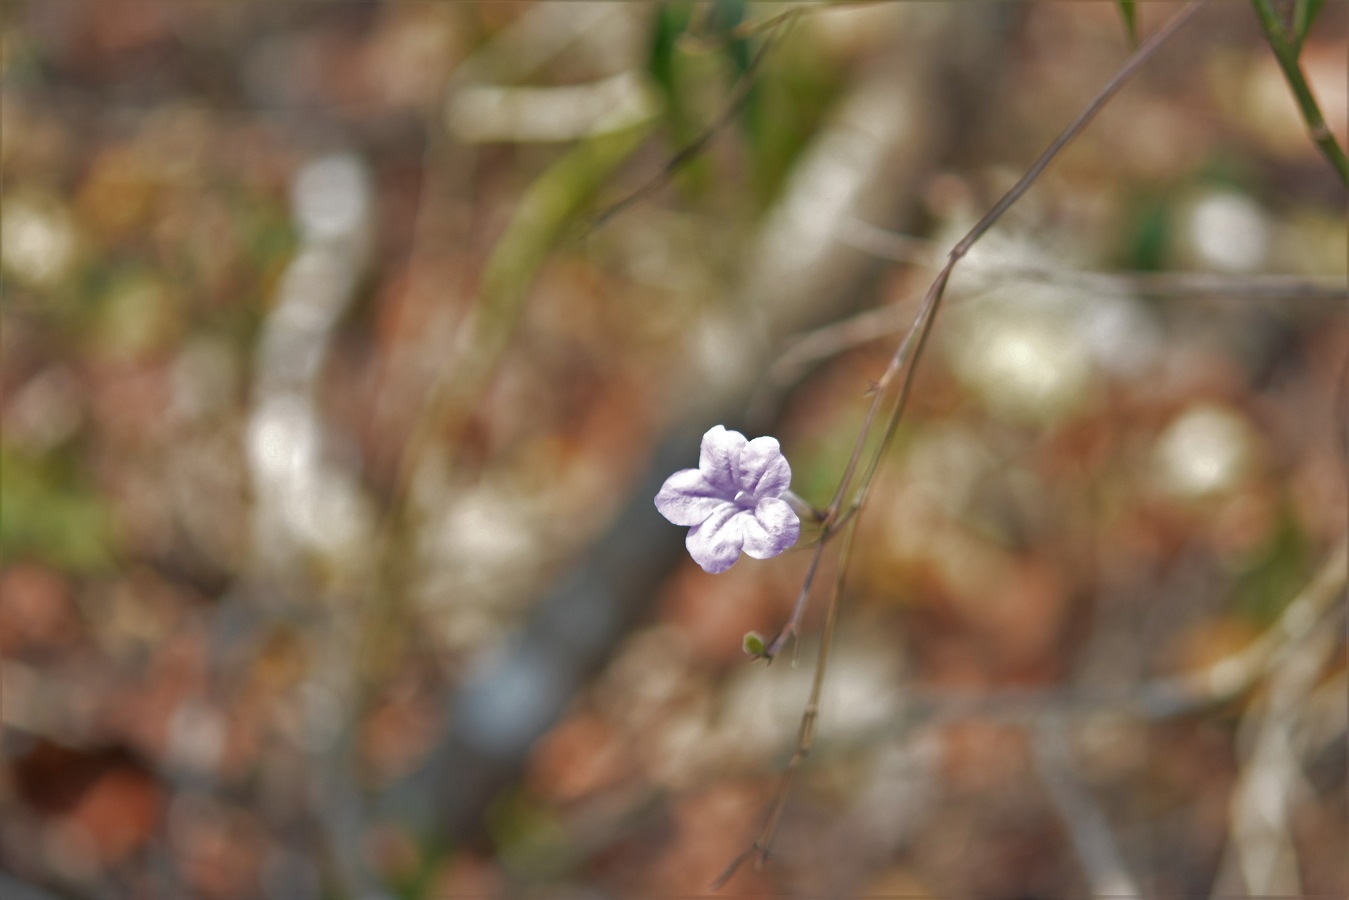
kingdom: Plantae
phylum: Tracheophyta
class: Magnoliopsida
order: Lamiales
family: Acanthaceae
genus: Ruellia
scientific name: Ruellia breedlovei
